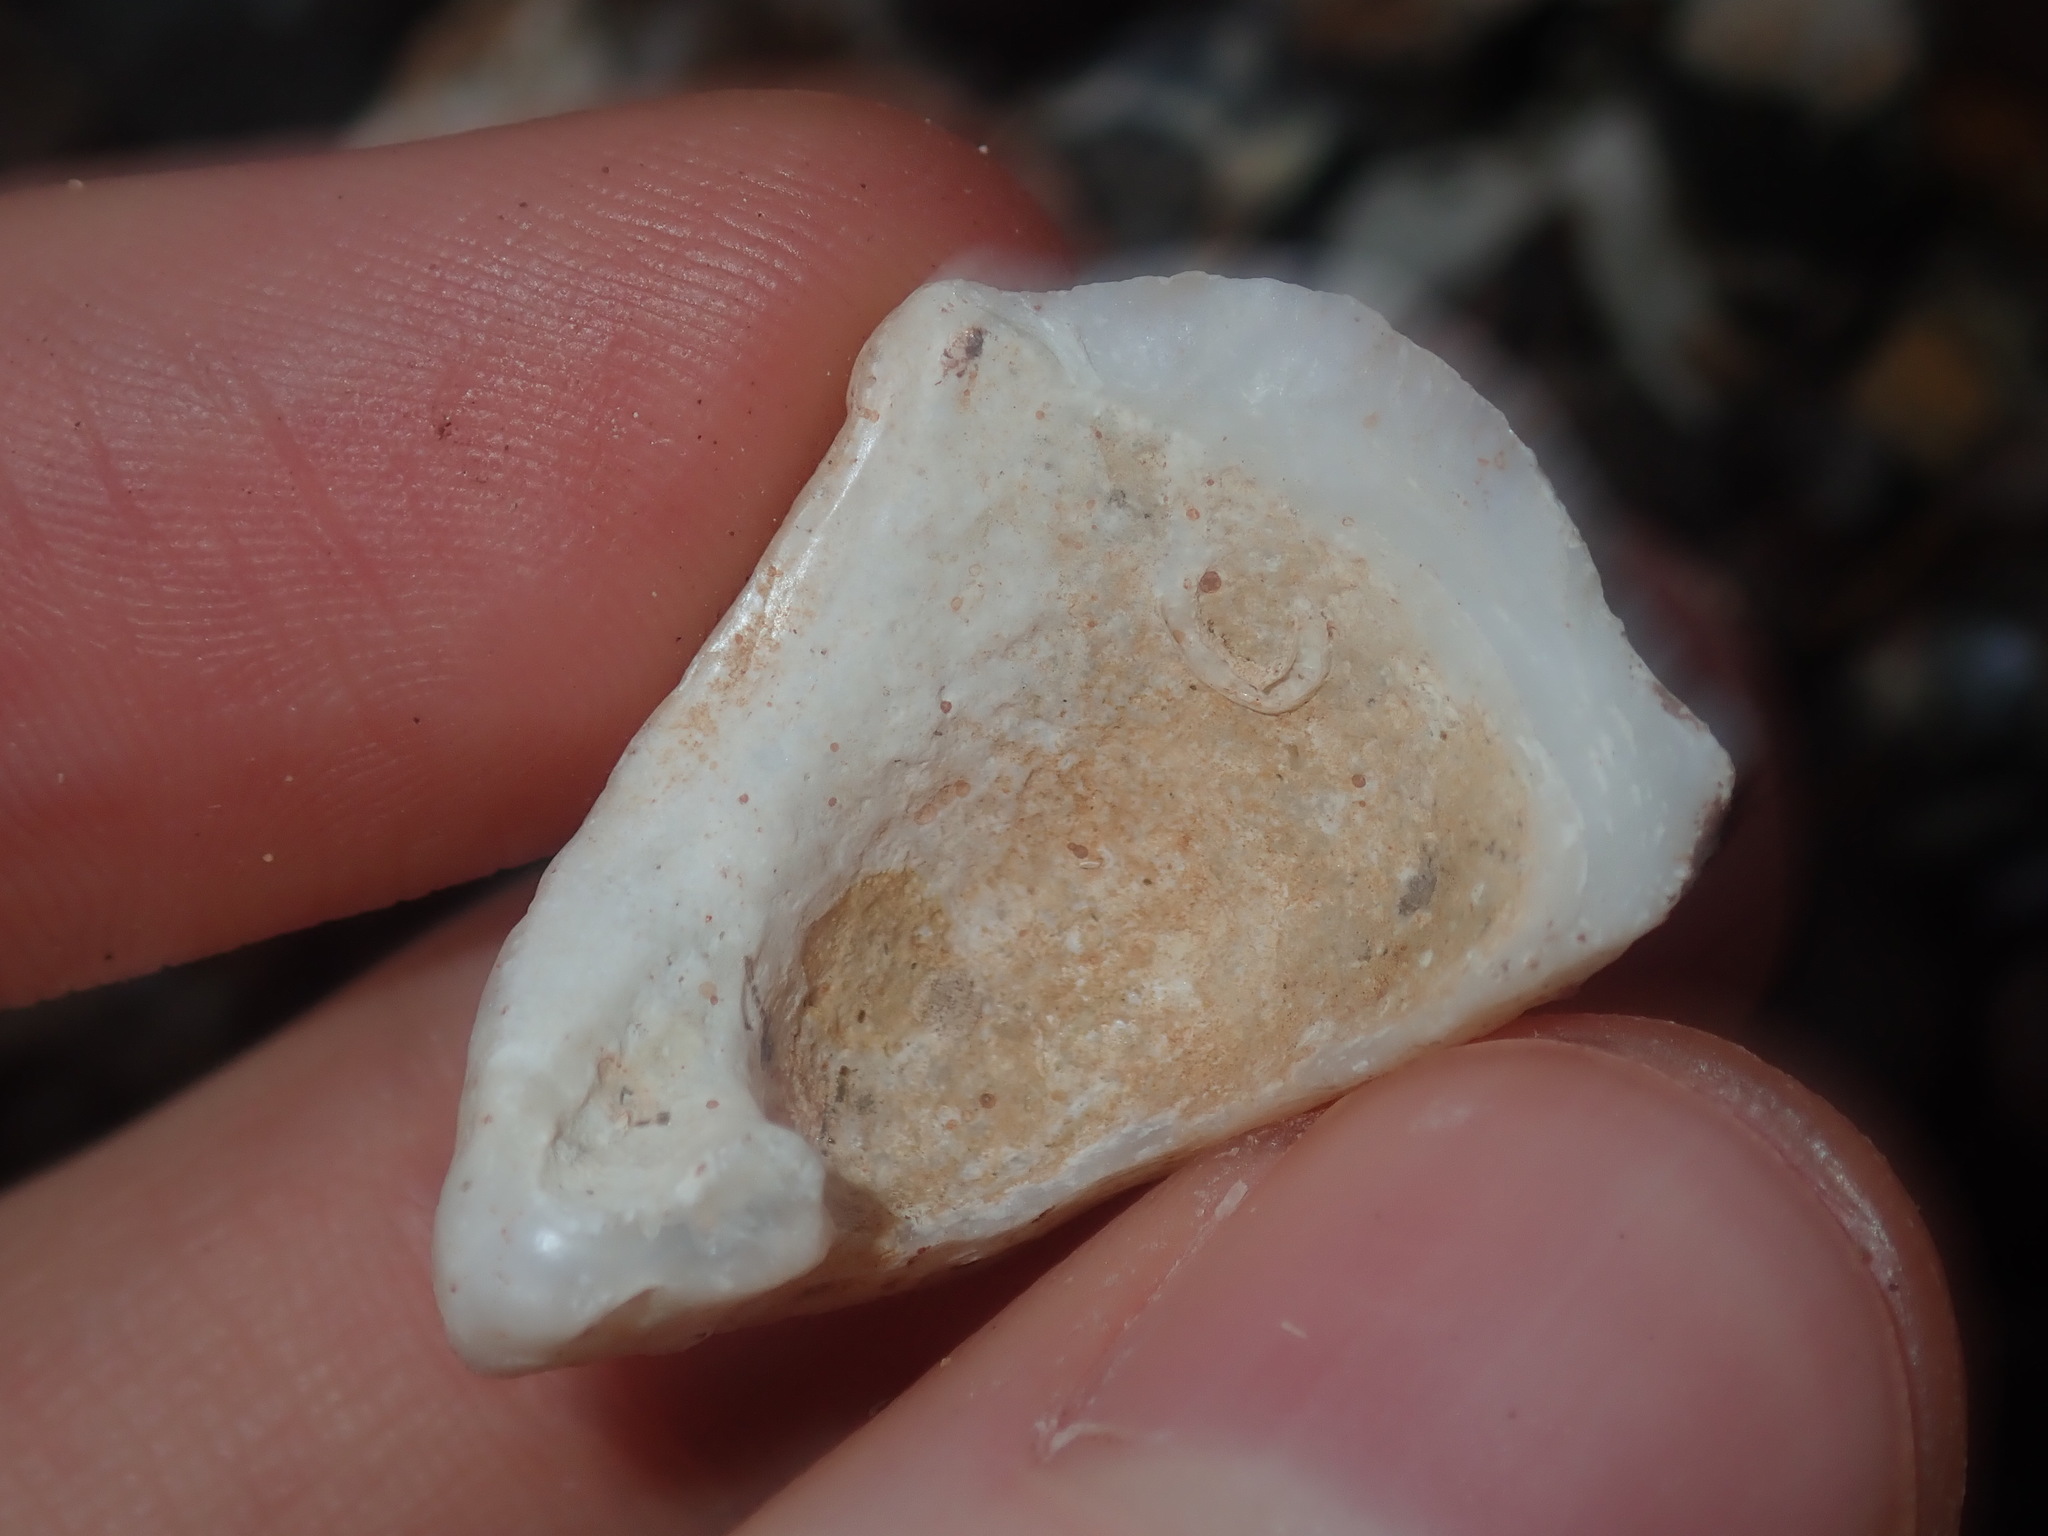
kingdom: Animalia
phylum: Mollusca
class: Bivalvia
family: Cleidothaeridae
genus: Cleidothaerus
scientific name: Cleidothaerus albidus
